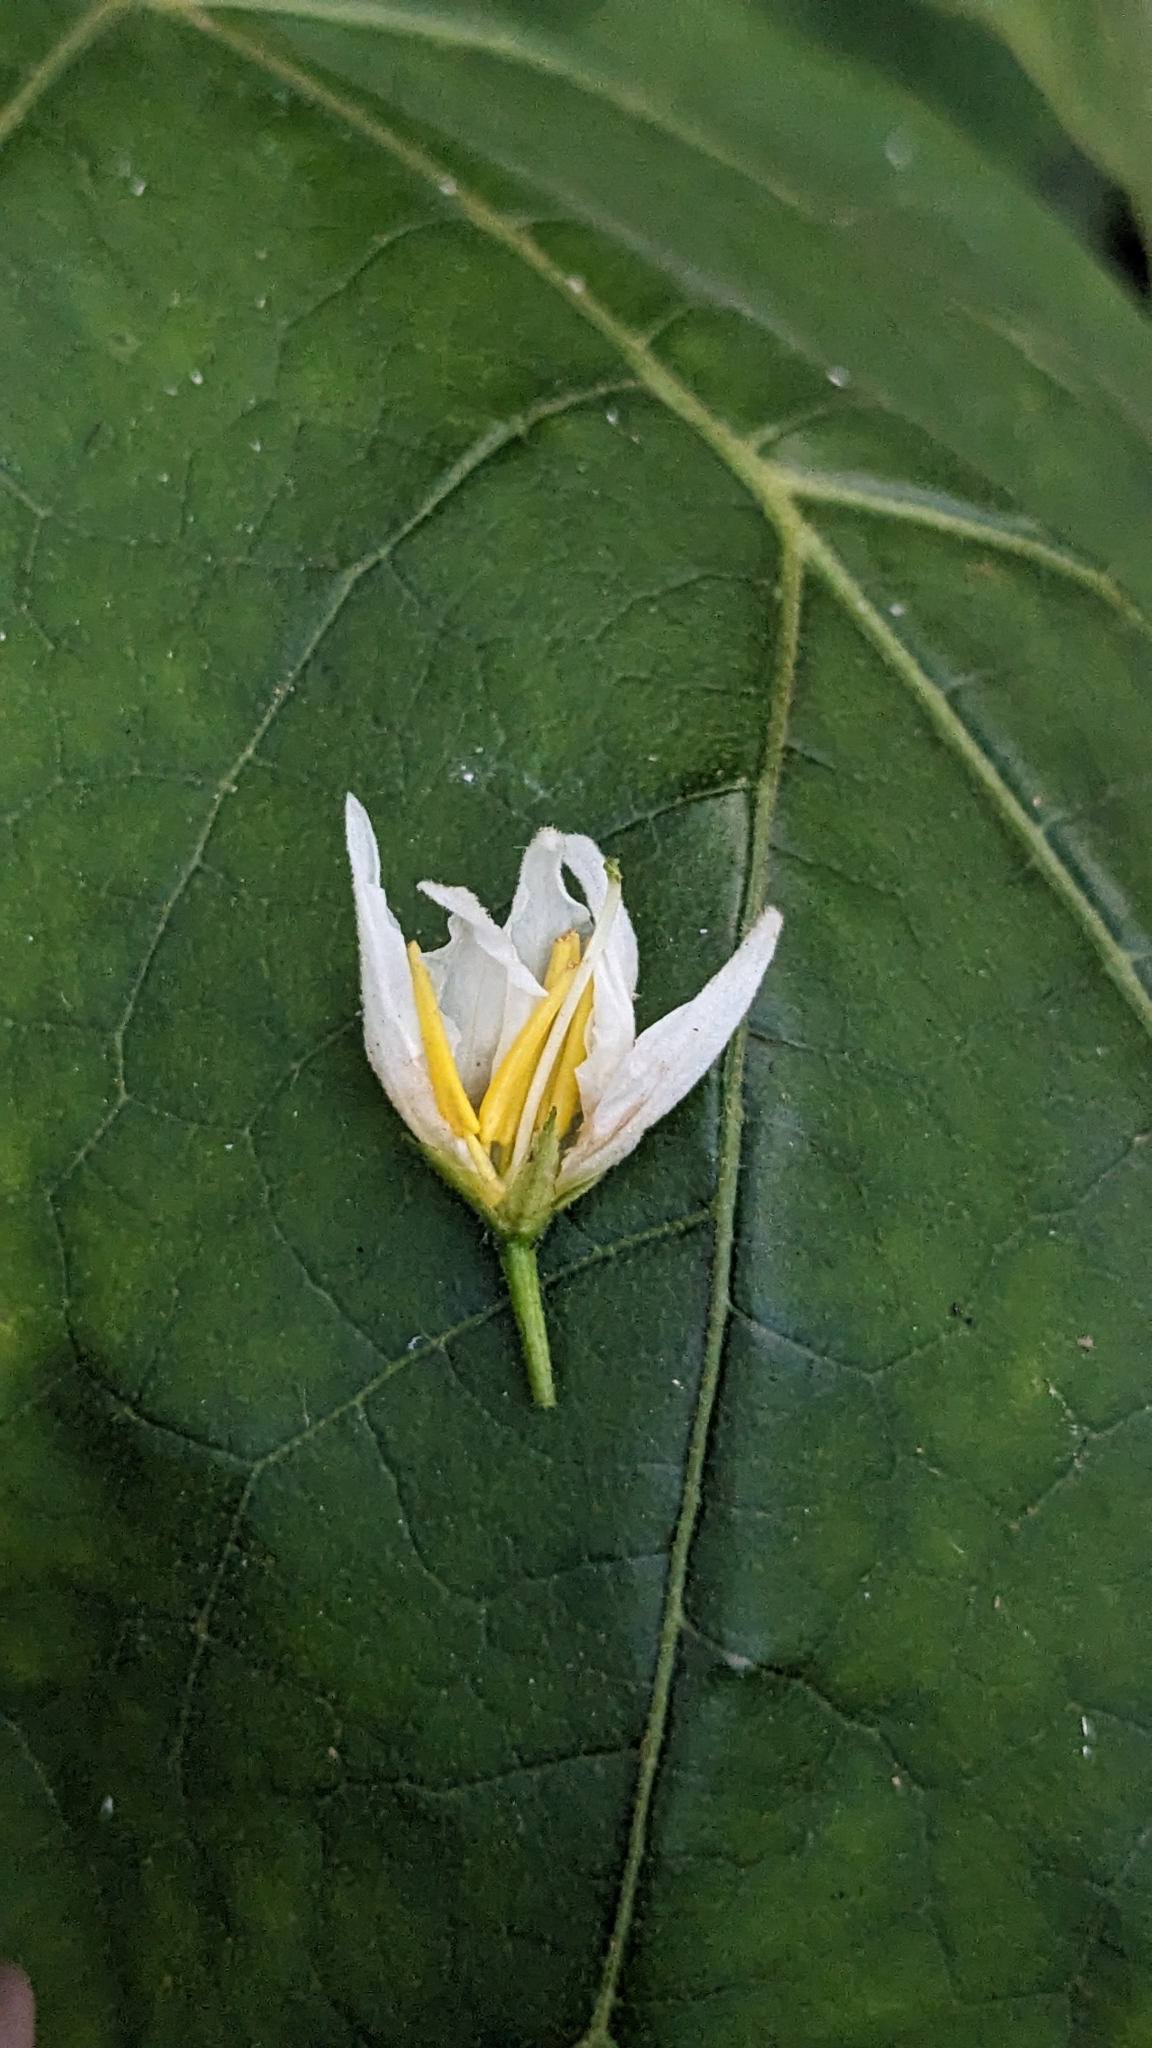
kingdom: Plantae
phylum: Tracheophyta
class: Magnoliopsida
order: Solanales
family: Solanaceae
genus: Solanum
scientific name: Solanum torvum
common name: Turkey berry
